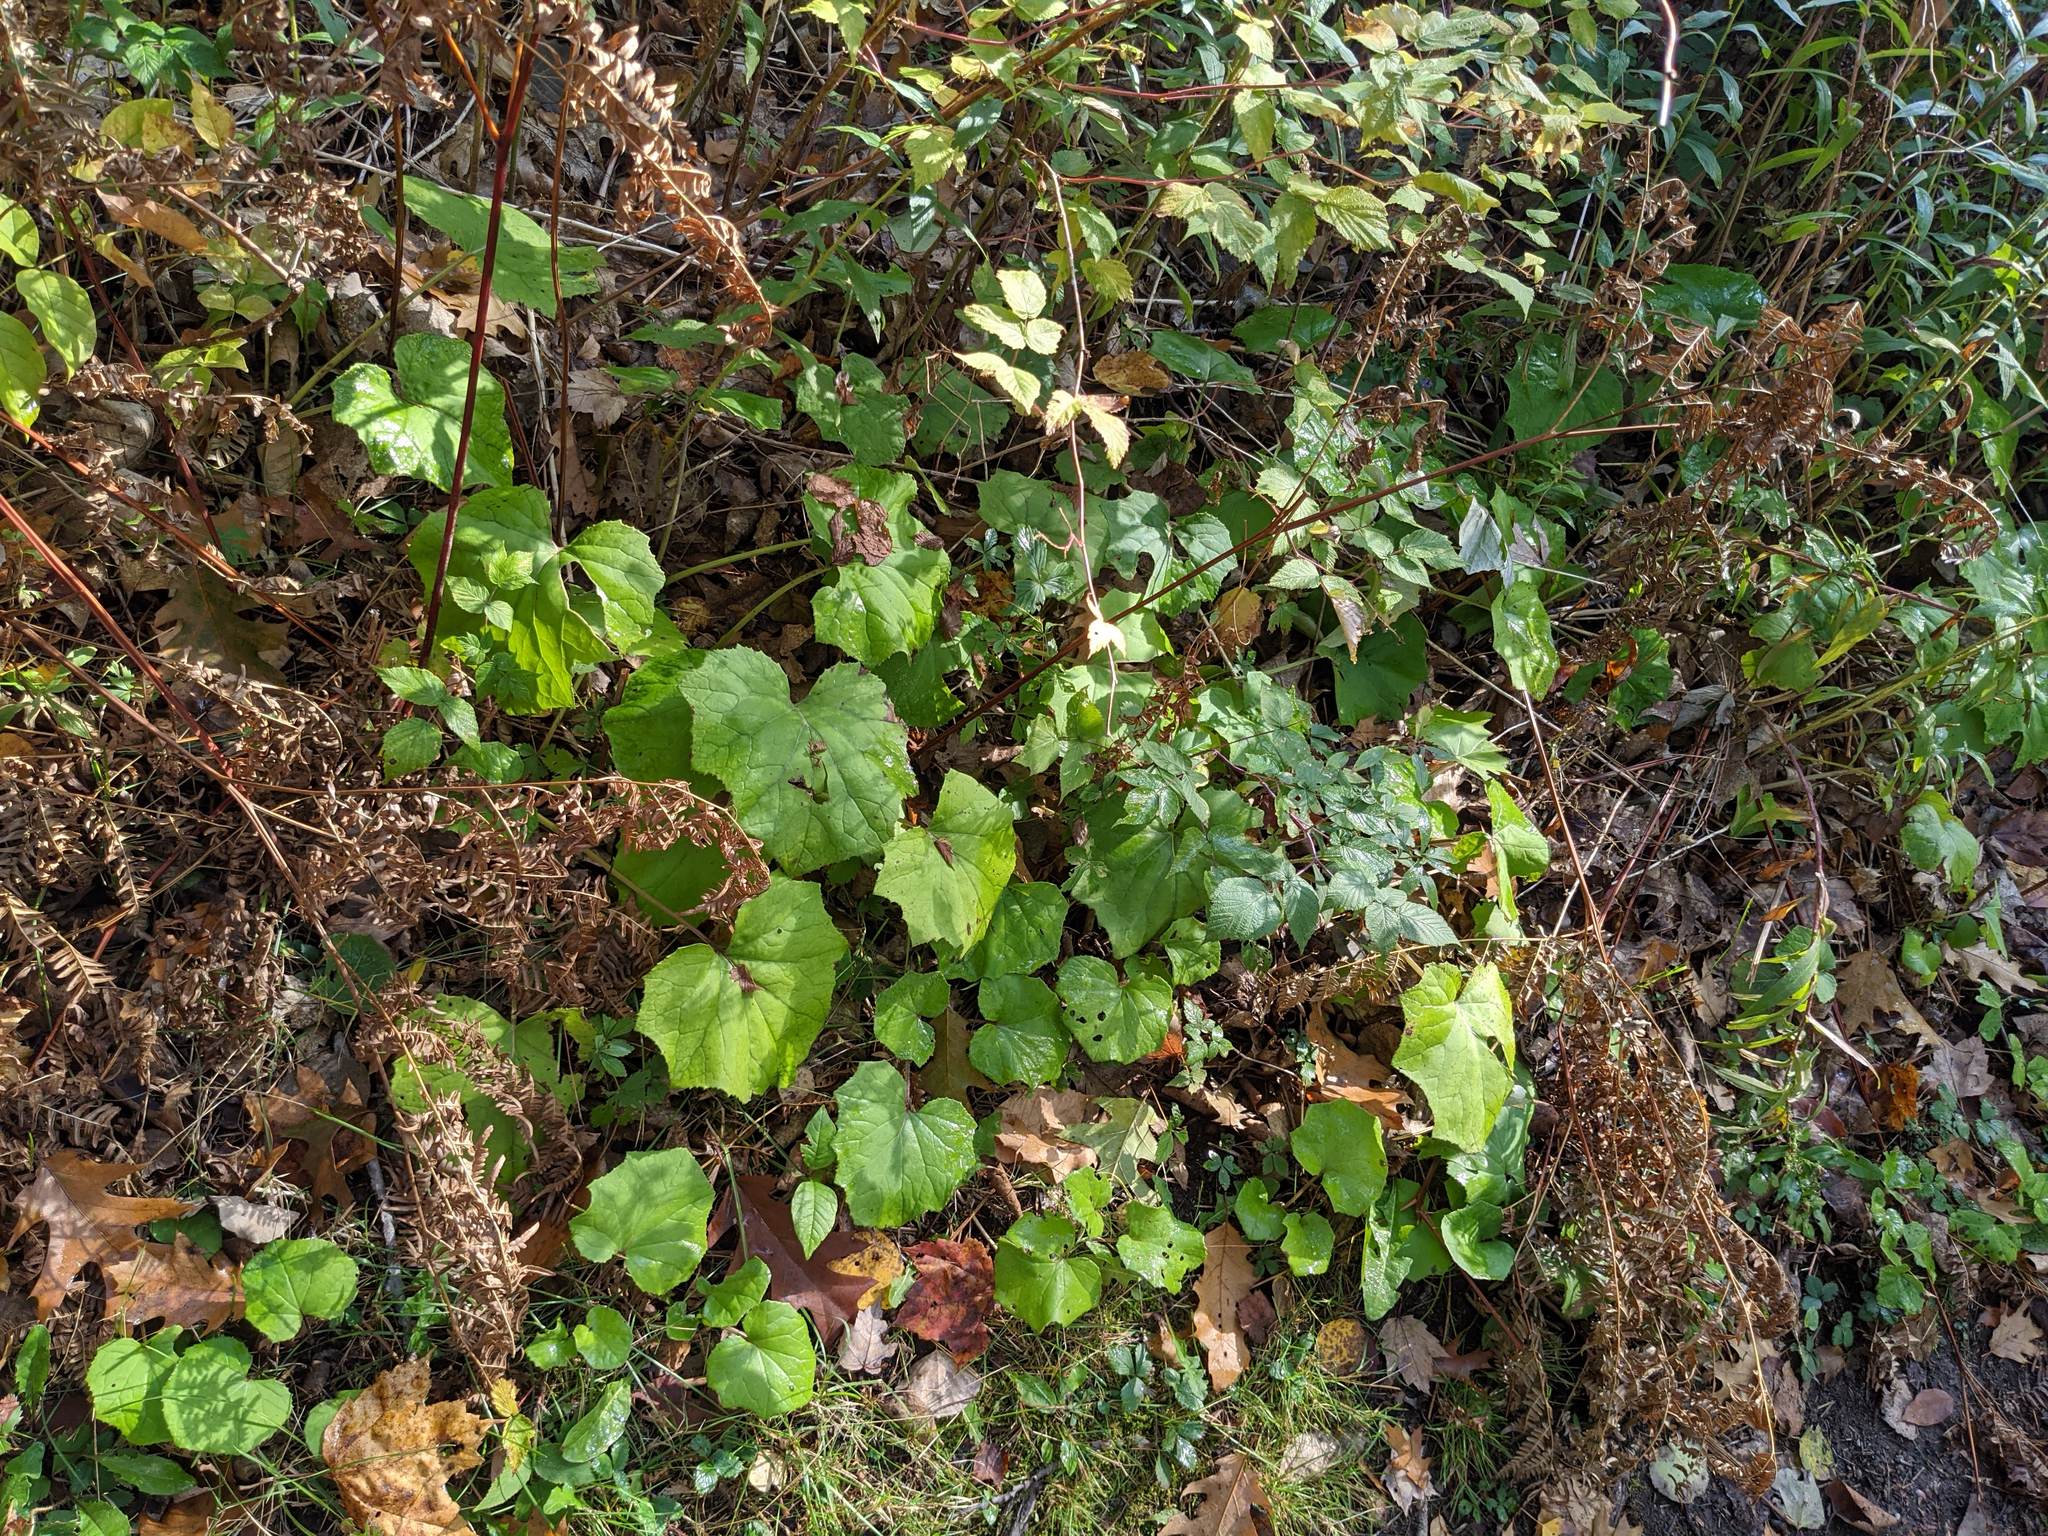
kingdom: Plantae
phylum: Tracheophyta
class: Magnoliopsida
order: Asterales
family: Asteraceae
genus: Tussilago
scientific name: Tussilago farfara
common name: Coltsfoot
